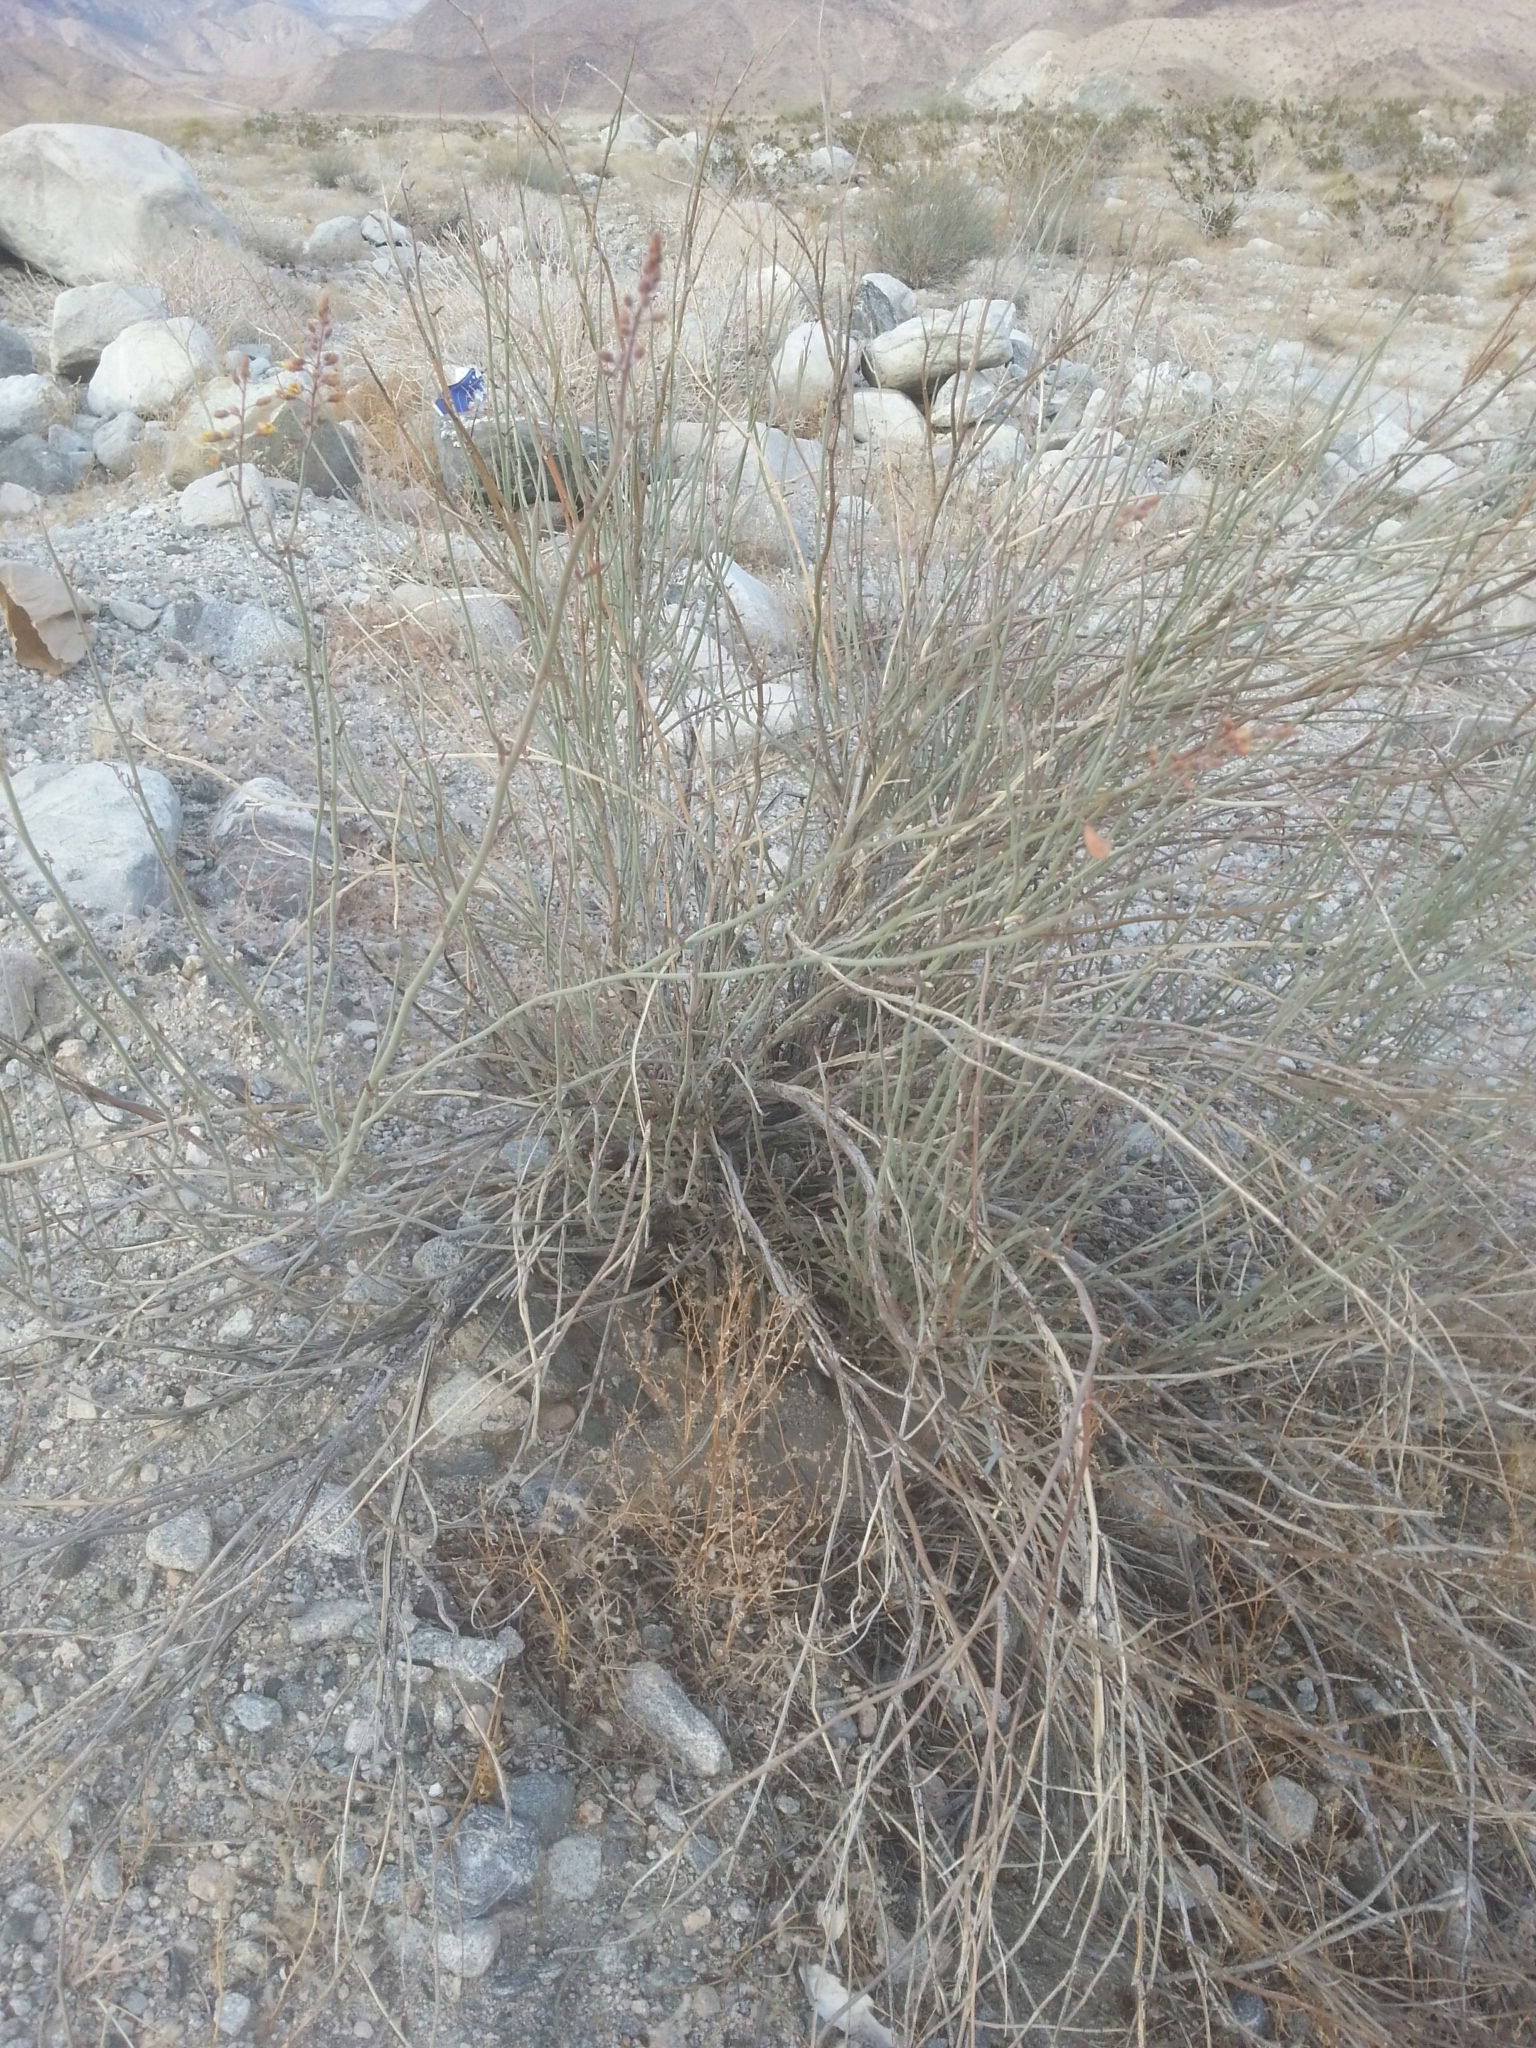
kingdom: Plantae
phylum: Tracheophyta
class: Magnoliopsida
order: Fabales
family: Fabaceae
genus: Hoffmannseggia
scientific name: Hoffmannseggia microphylla
